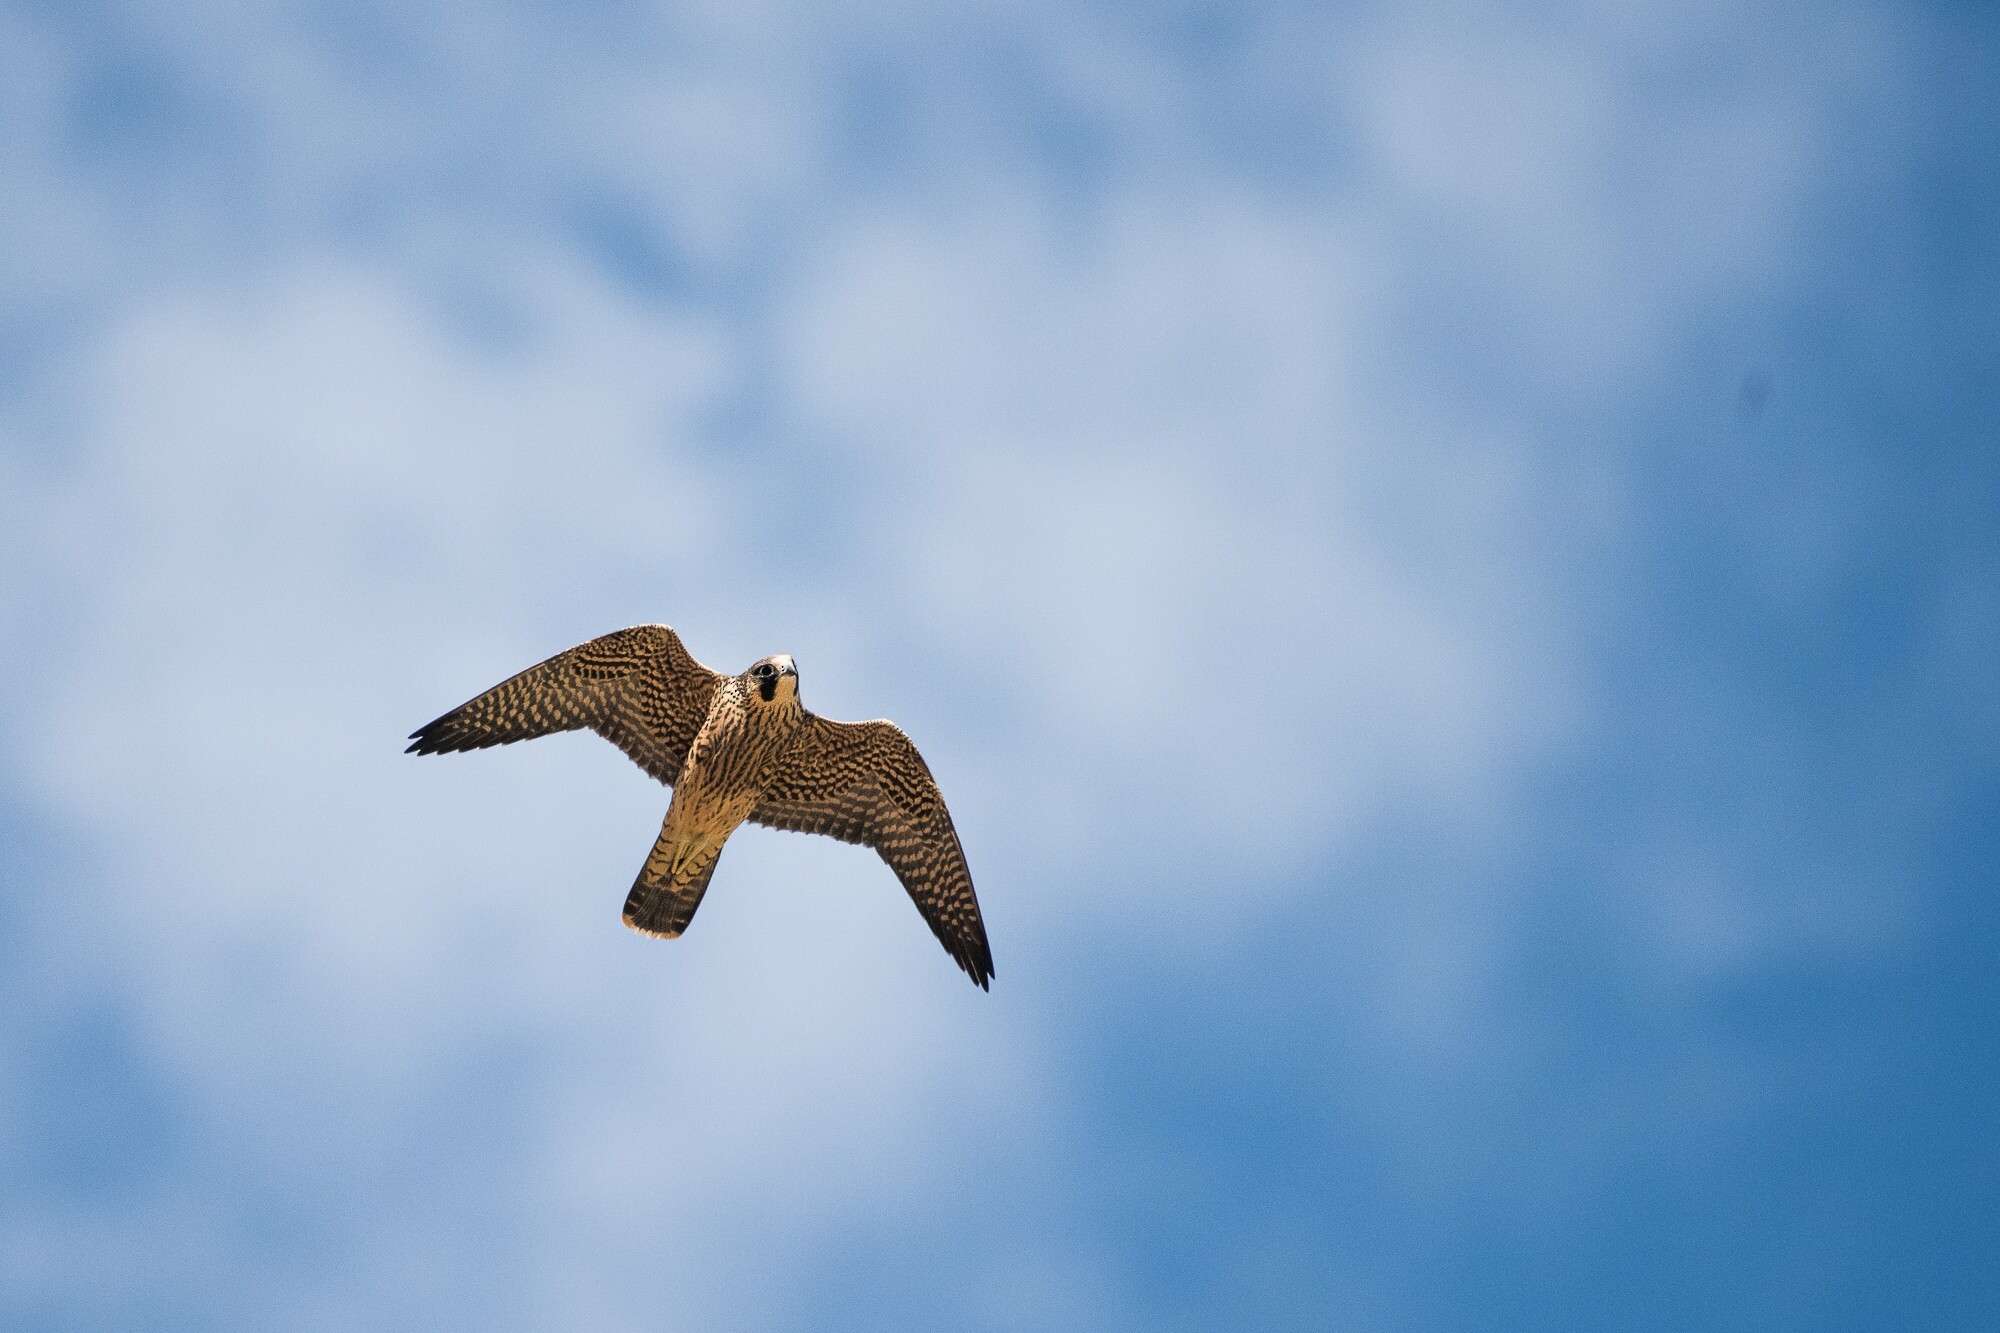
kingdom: Animalia
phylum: Chordata
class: Aves
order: Falconiformes
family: Falconidae
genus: Falco
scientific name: Falco peregrinus
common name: Peregrine falcon
